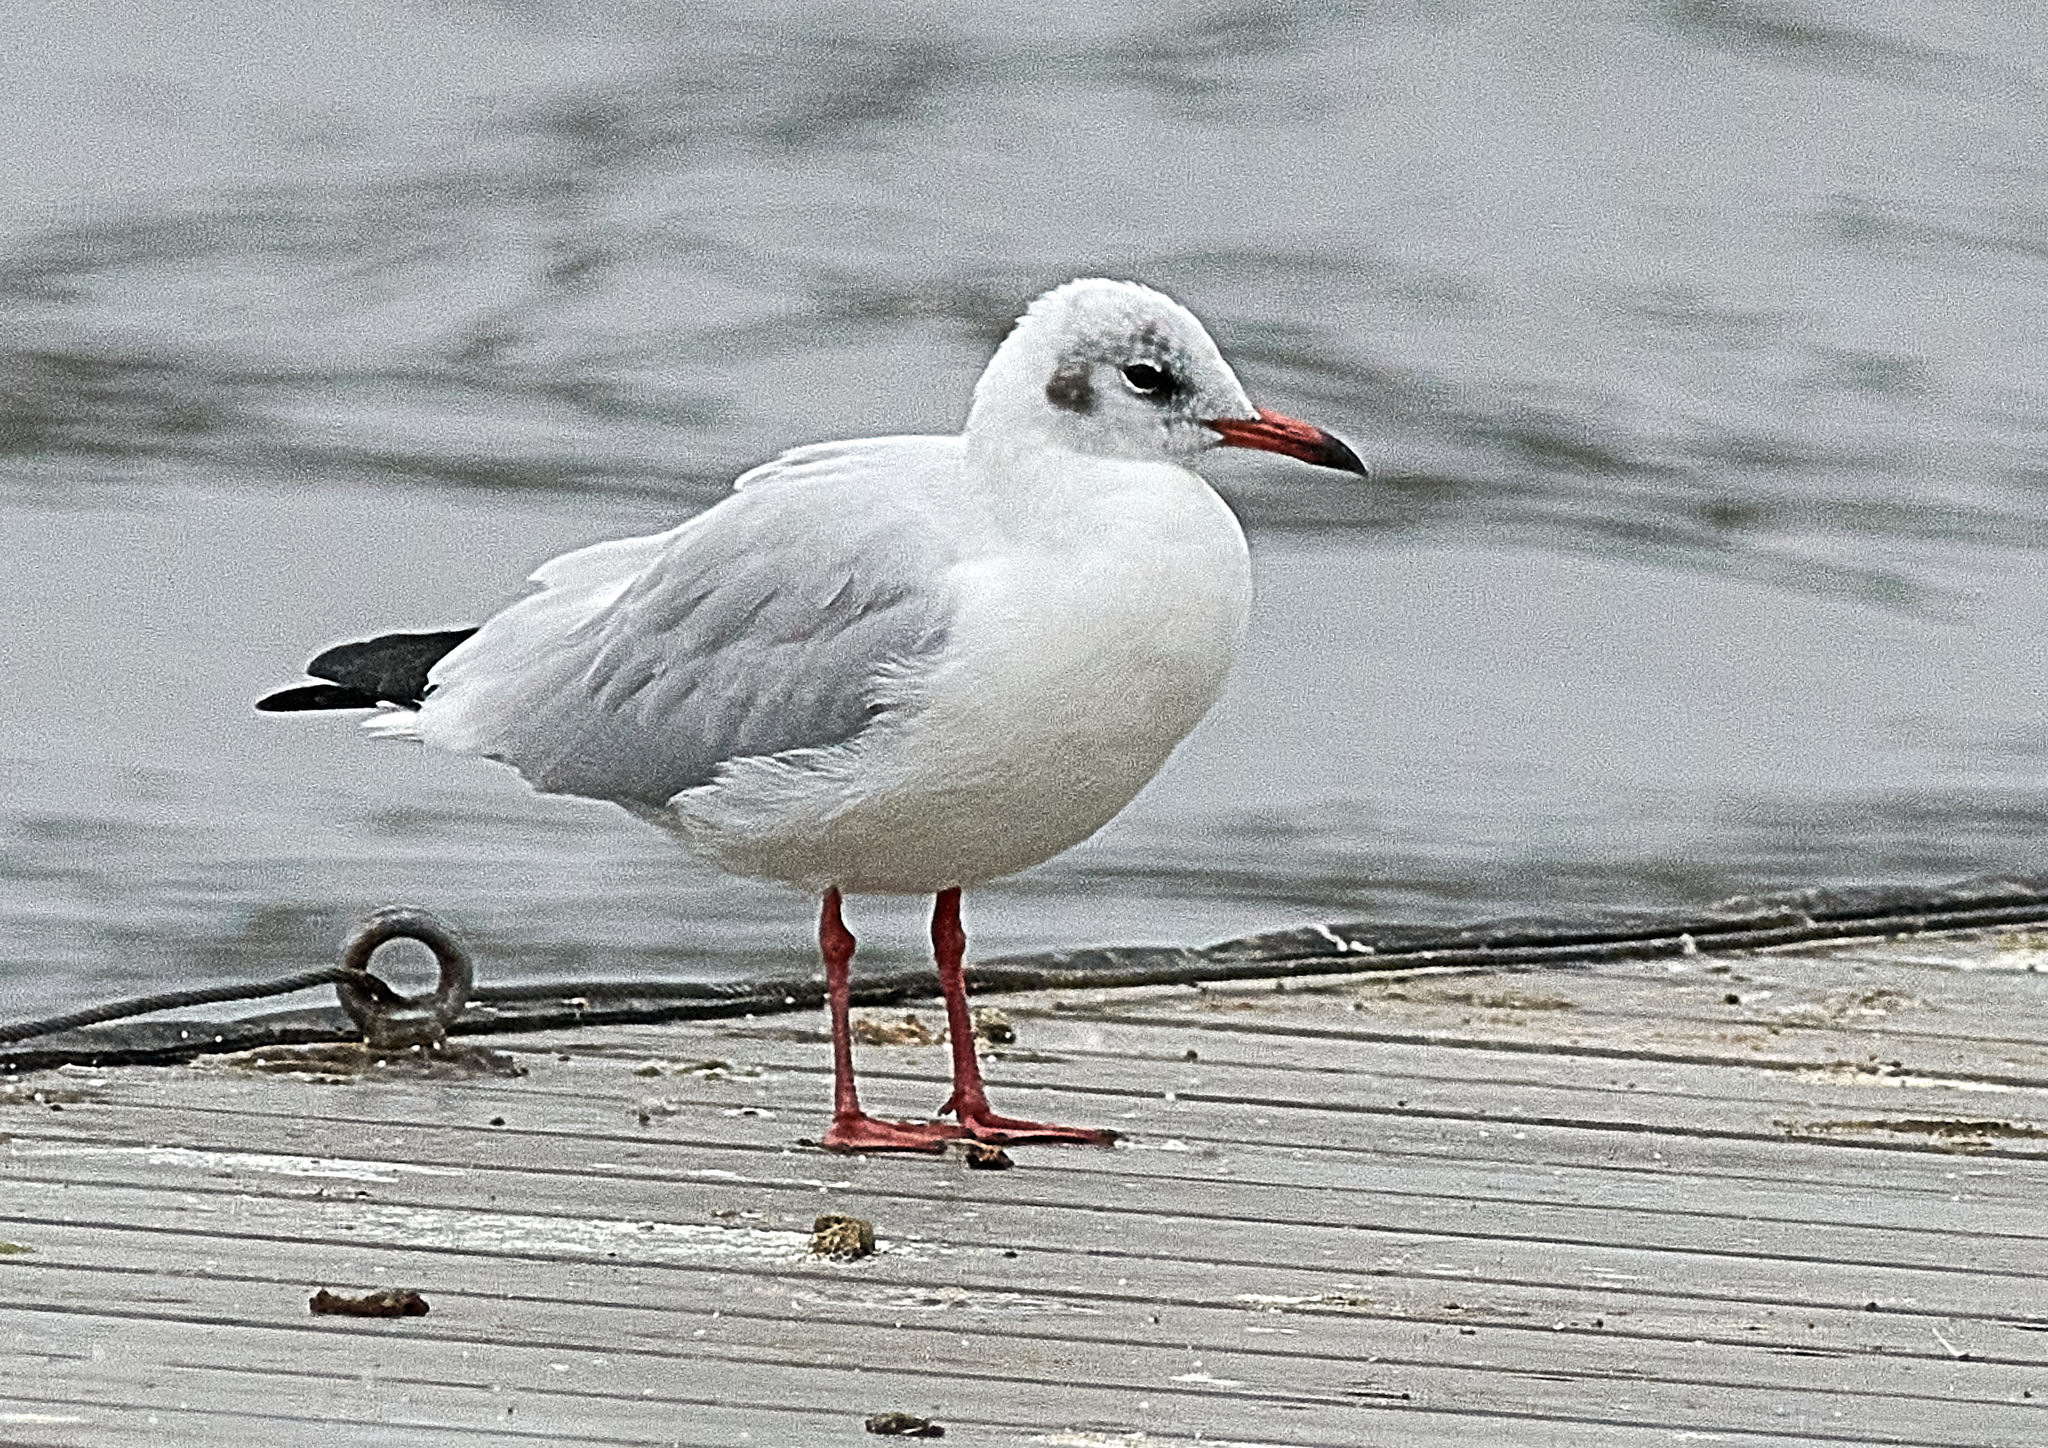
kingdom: Animalia
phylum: Chordata
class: Aves
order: Charadriiformes
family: Laridae
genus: Chroicocephalus
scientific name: Chroicocephalus ridibundus
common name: Black-headed gull
